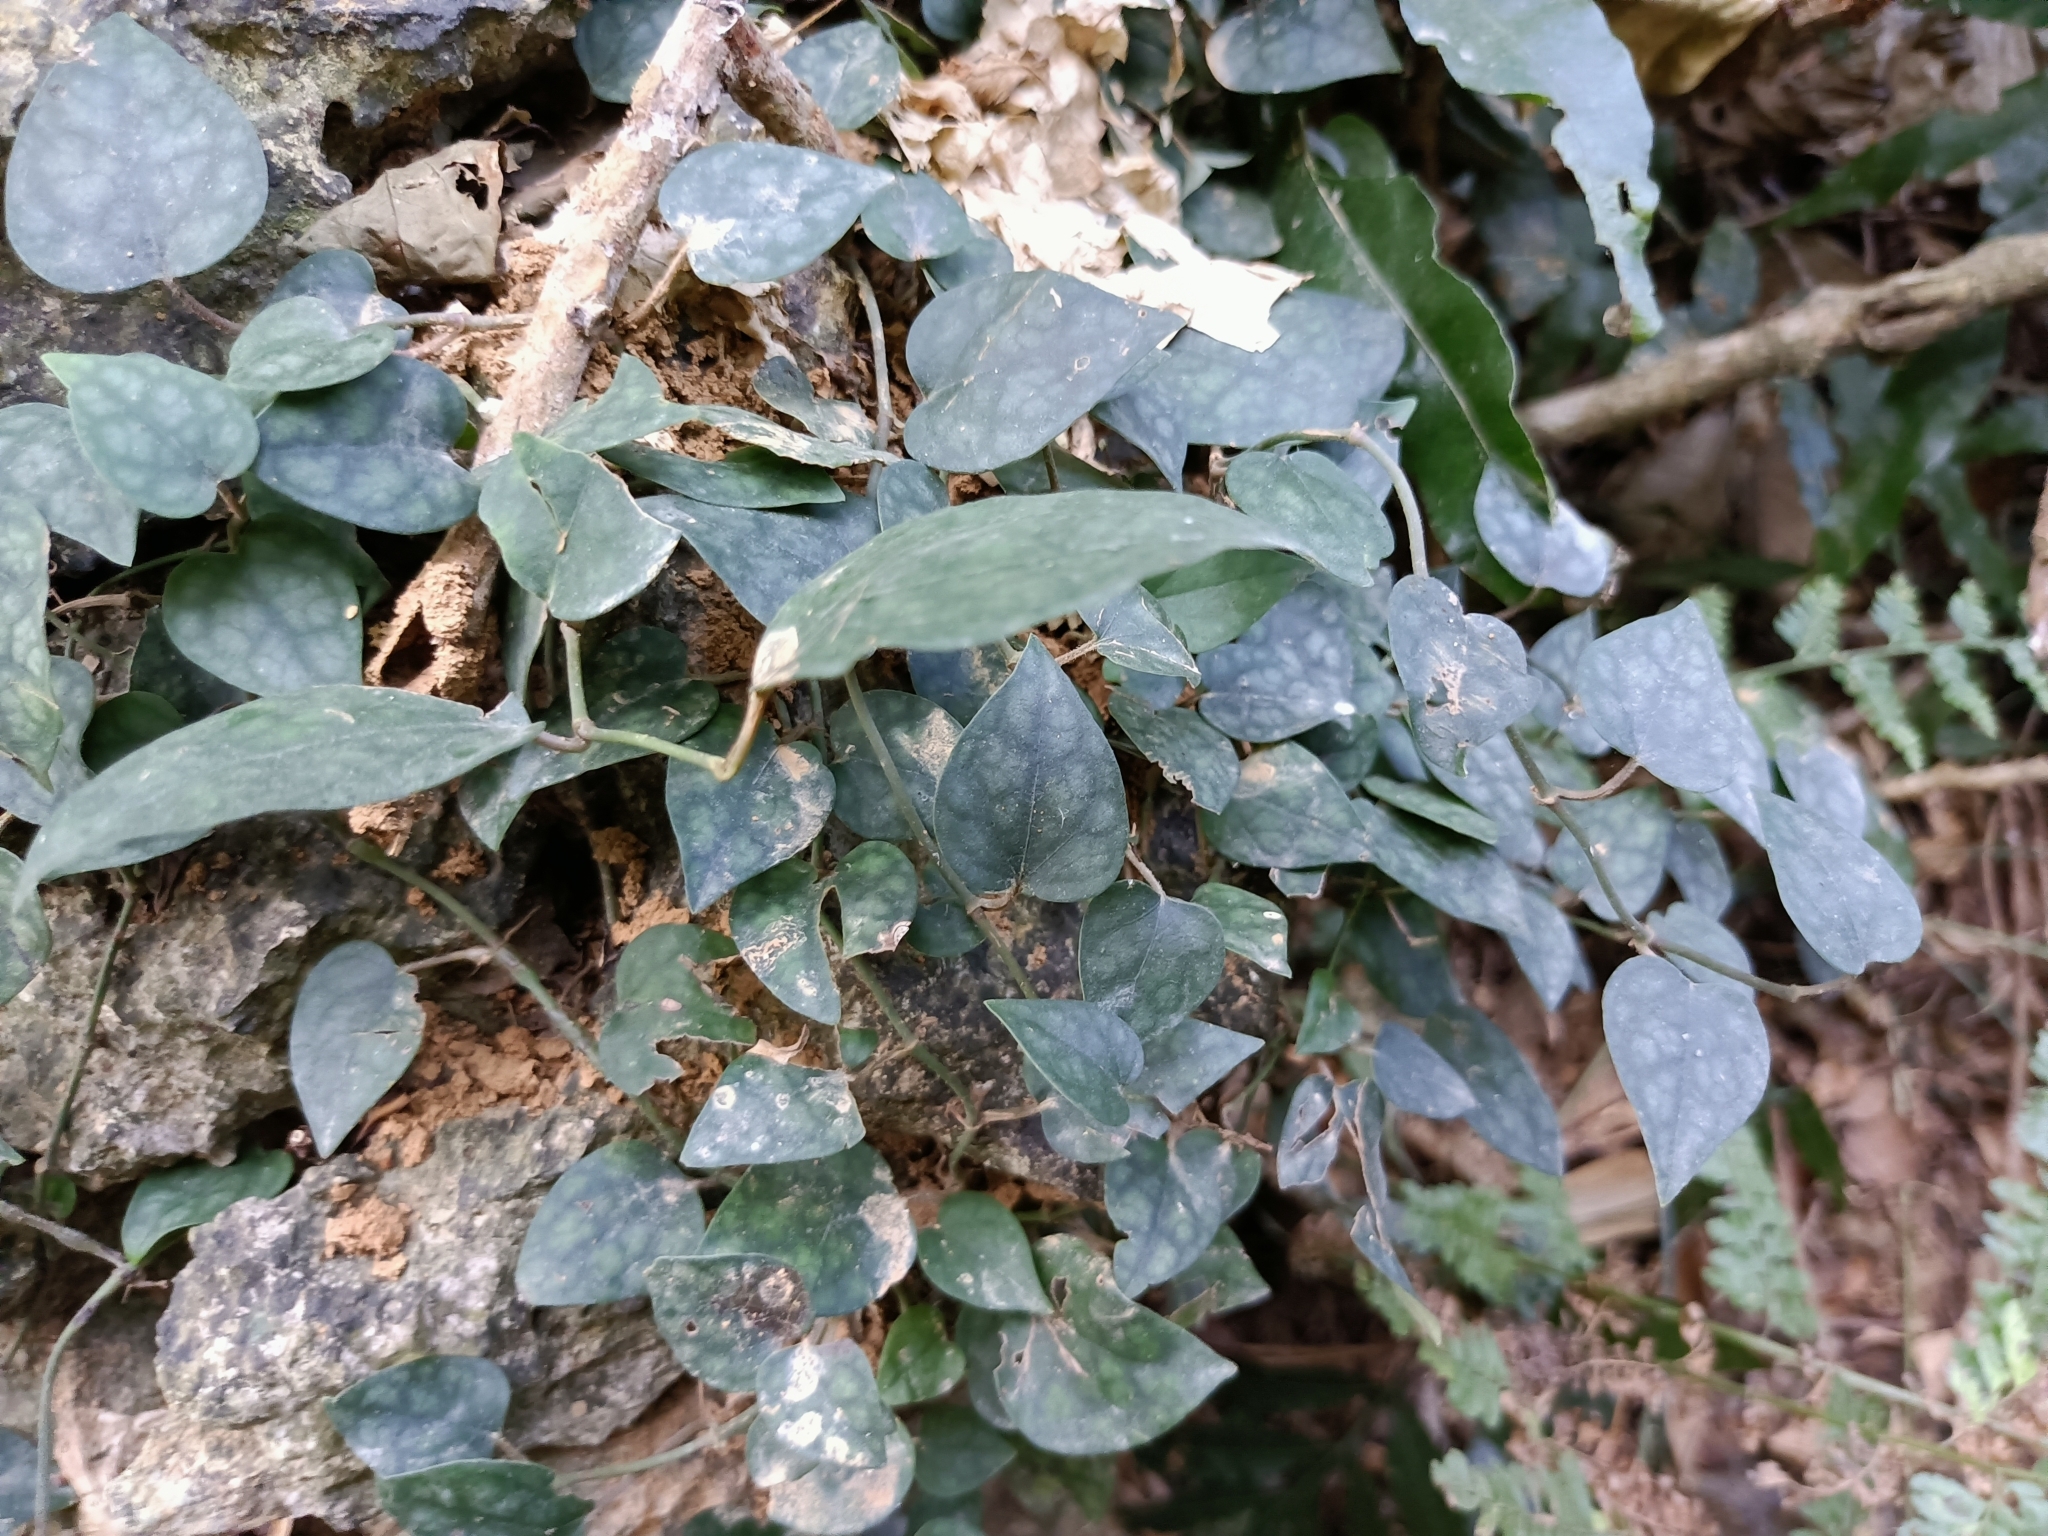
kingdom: Plantae
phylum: Tracheophyta
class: Magnoliopsida
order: Piperales
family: Piperaceae
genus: Piper
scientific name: Piper kadsura
